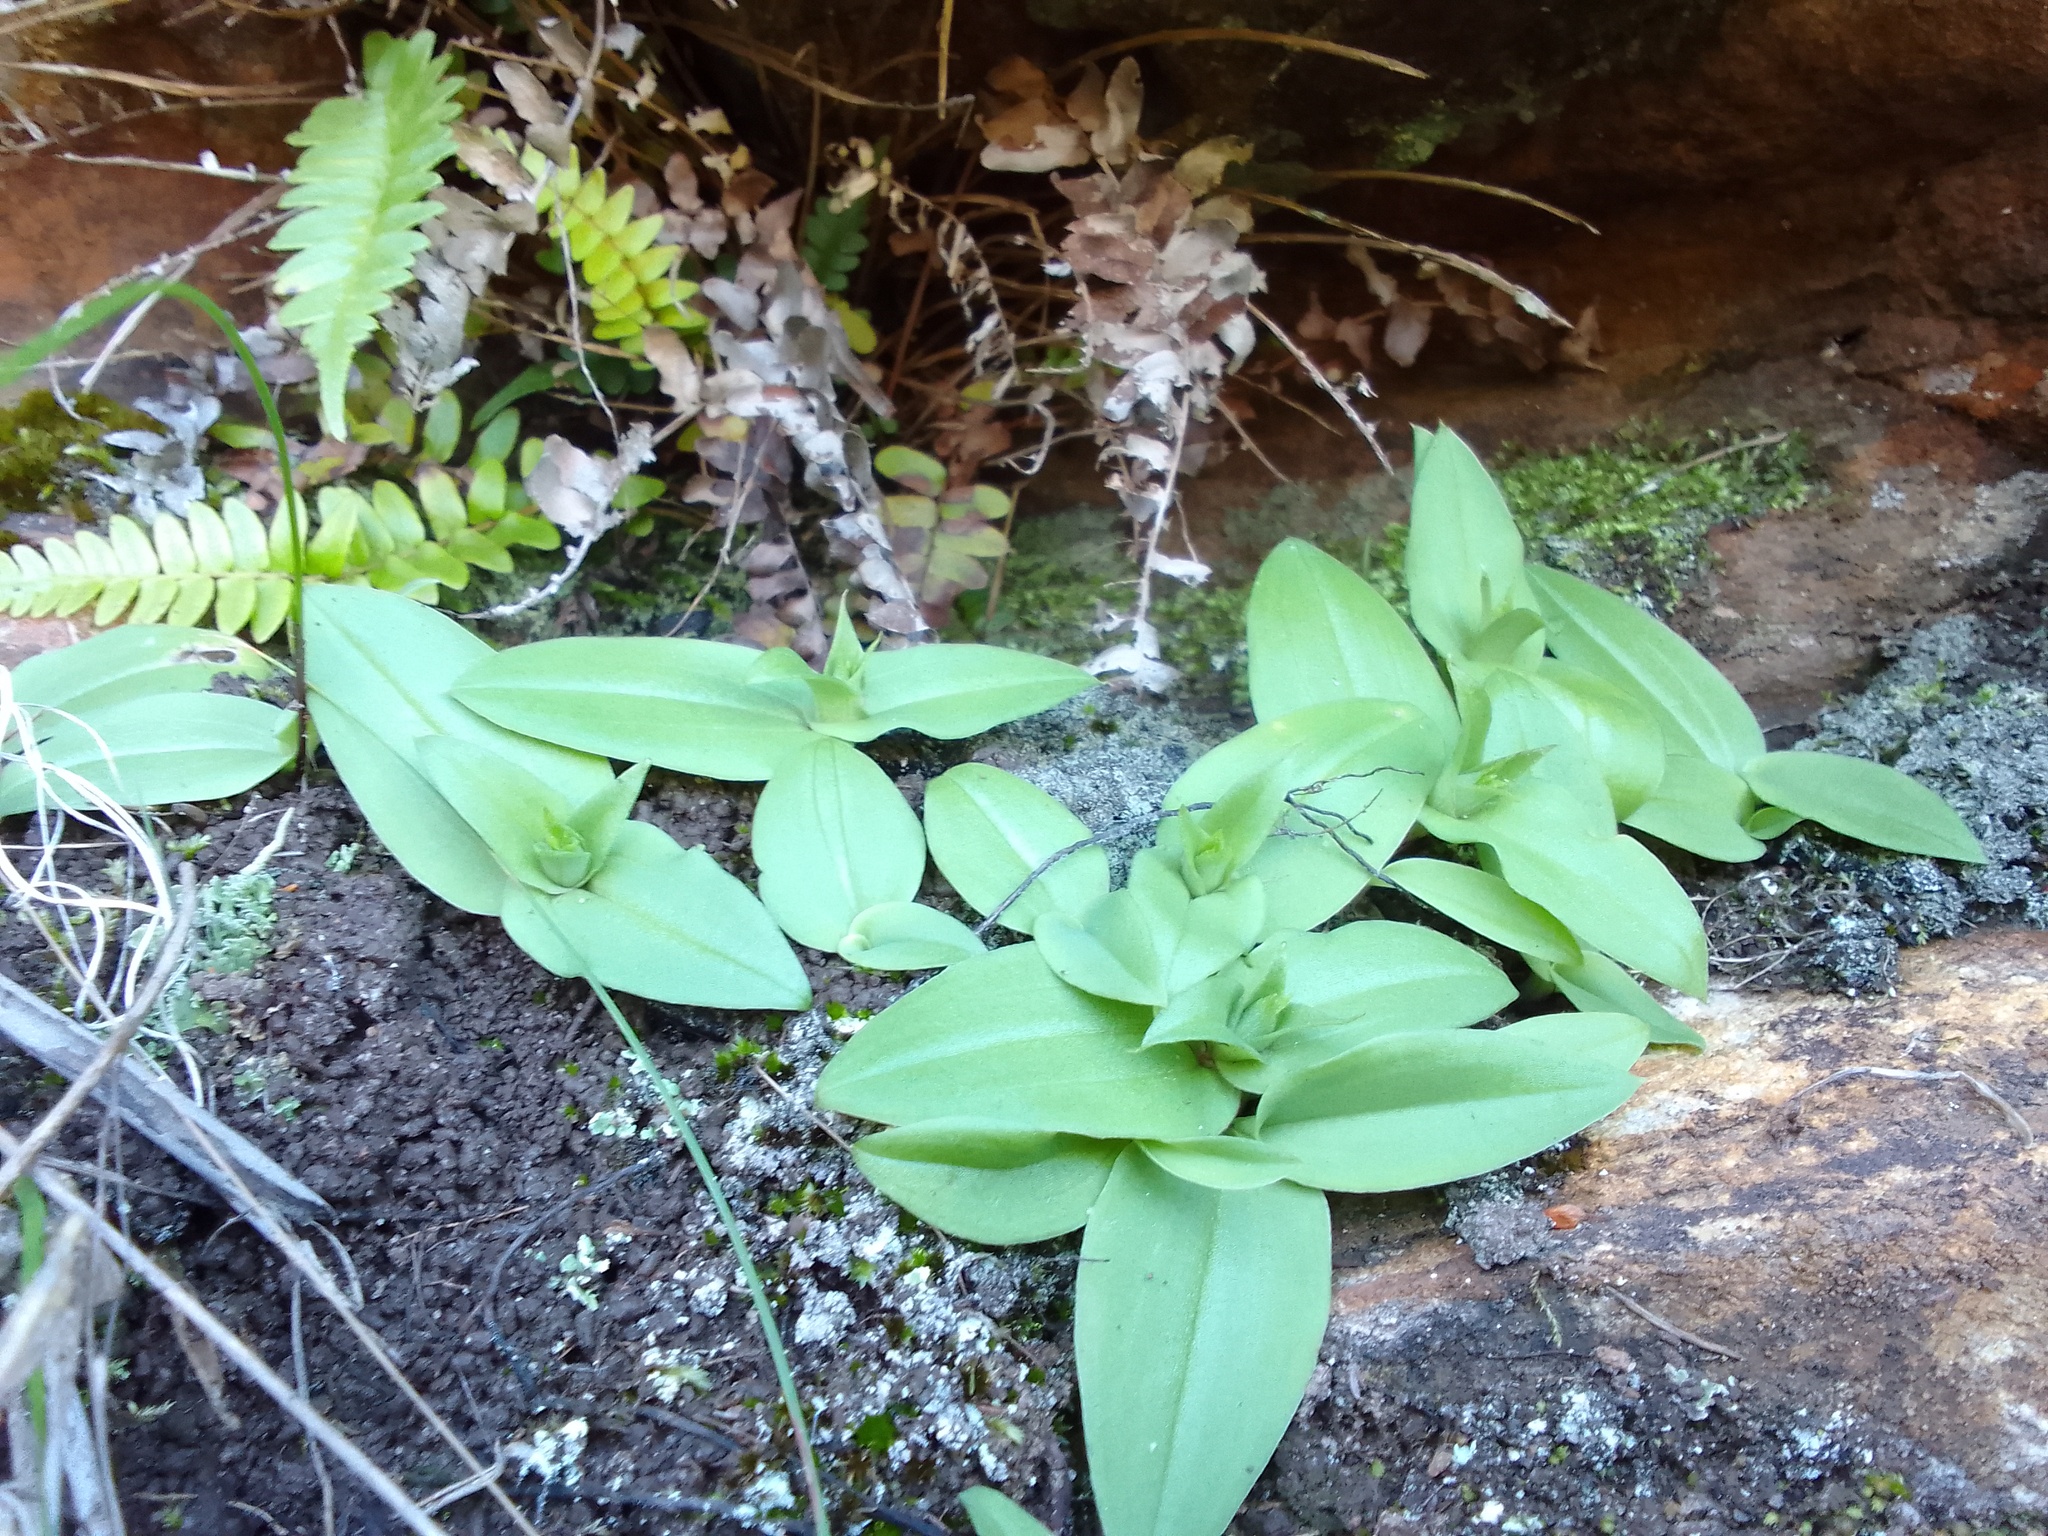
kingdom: Plantae
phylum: Tracheophyta
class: Liliopsida
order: Asparagales
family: Orchidaceae
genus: Satyrium
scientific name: Satyrium bracteatum
